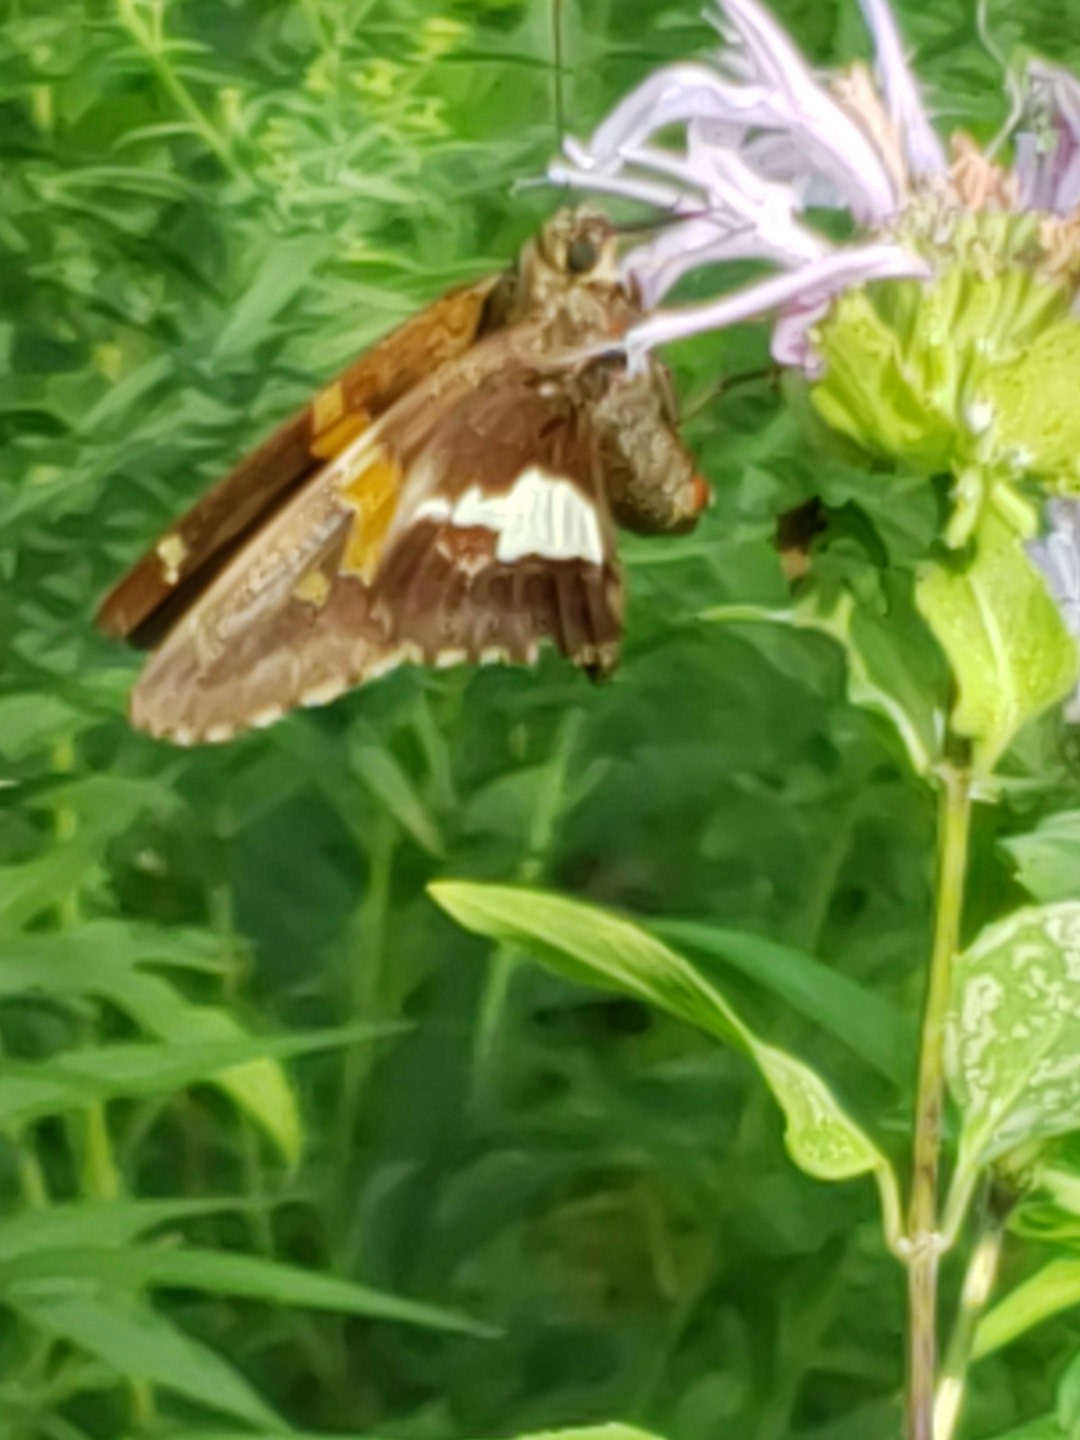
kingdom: Animalia
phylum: Arthropoda
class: Insecta
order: Lepidoptera
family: Hesperiidae
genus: Epargyreus
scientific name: Epargyreus clarus
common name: Silver-spotted skipper
